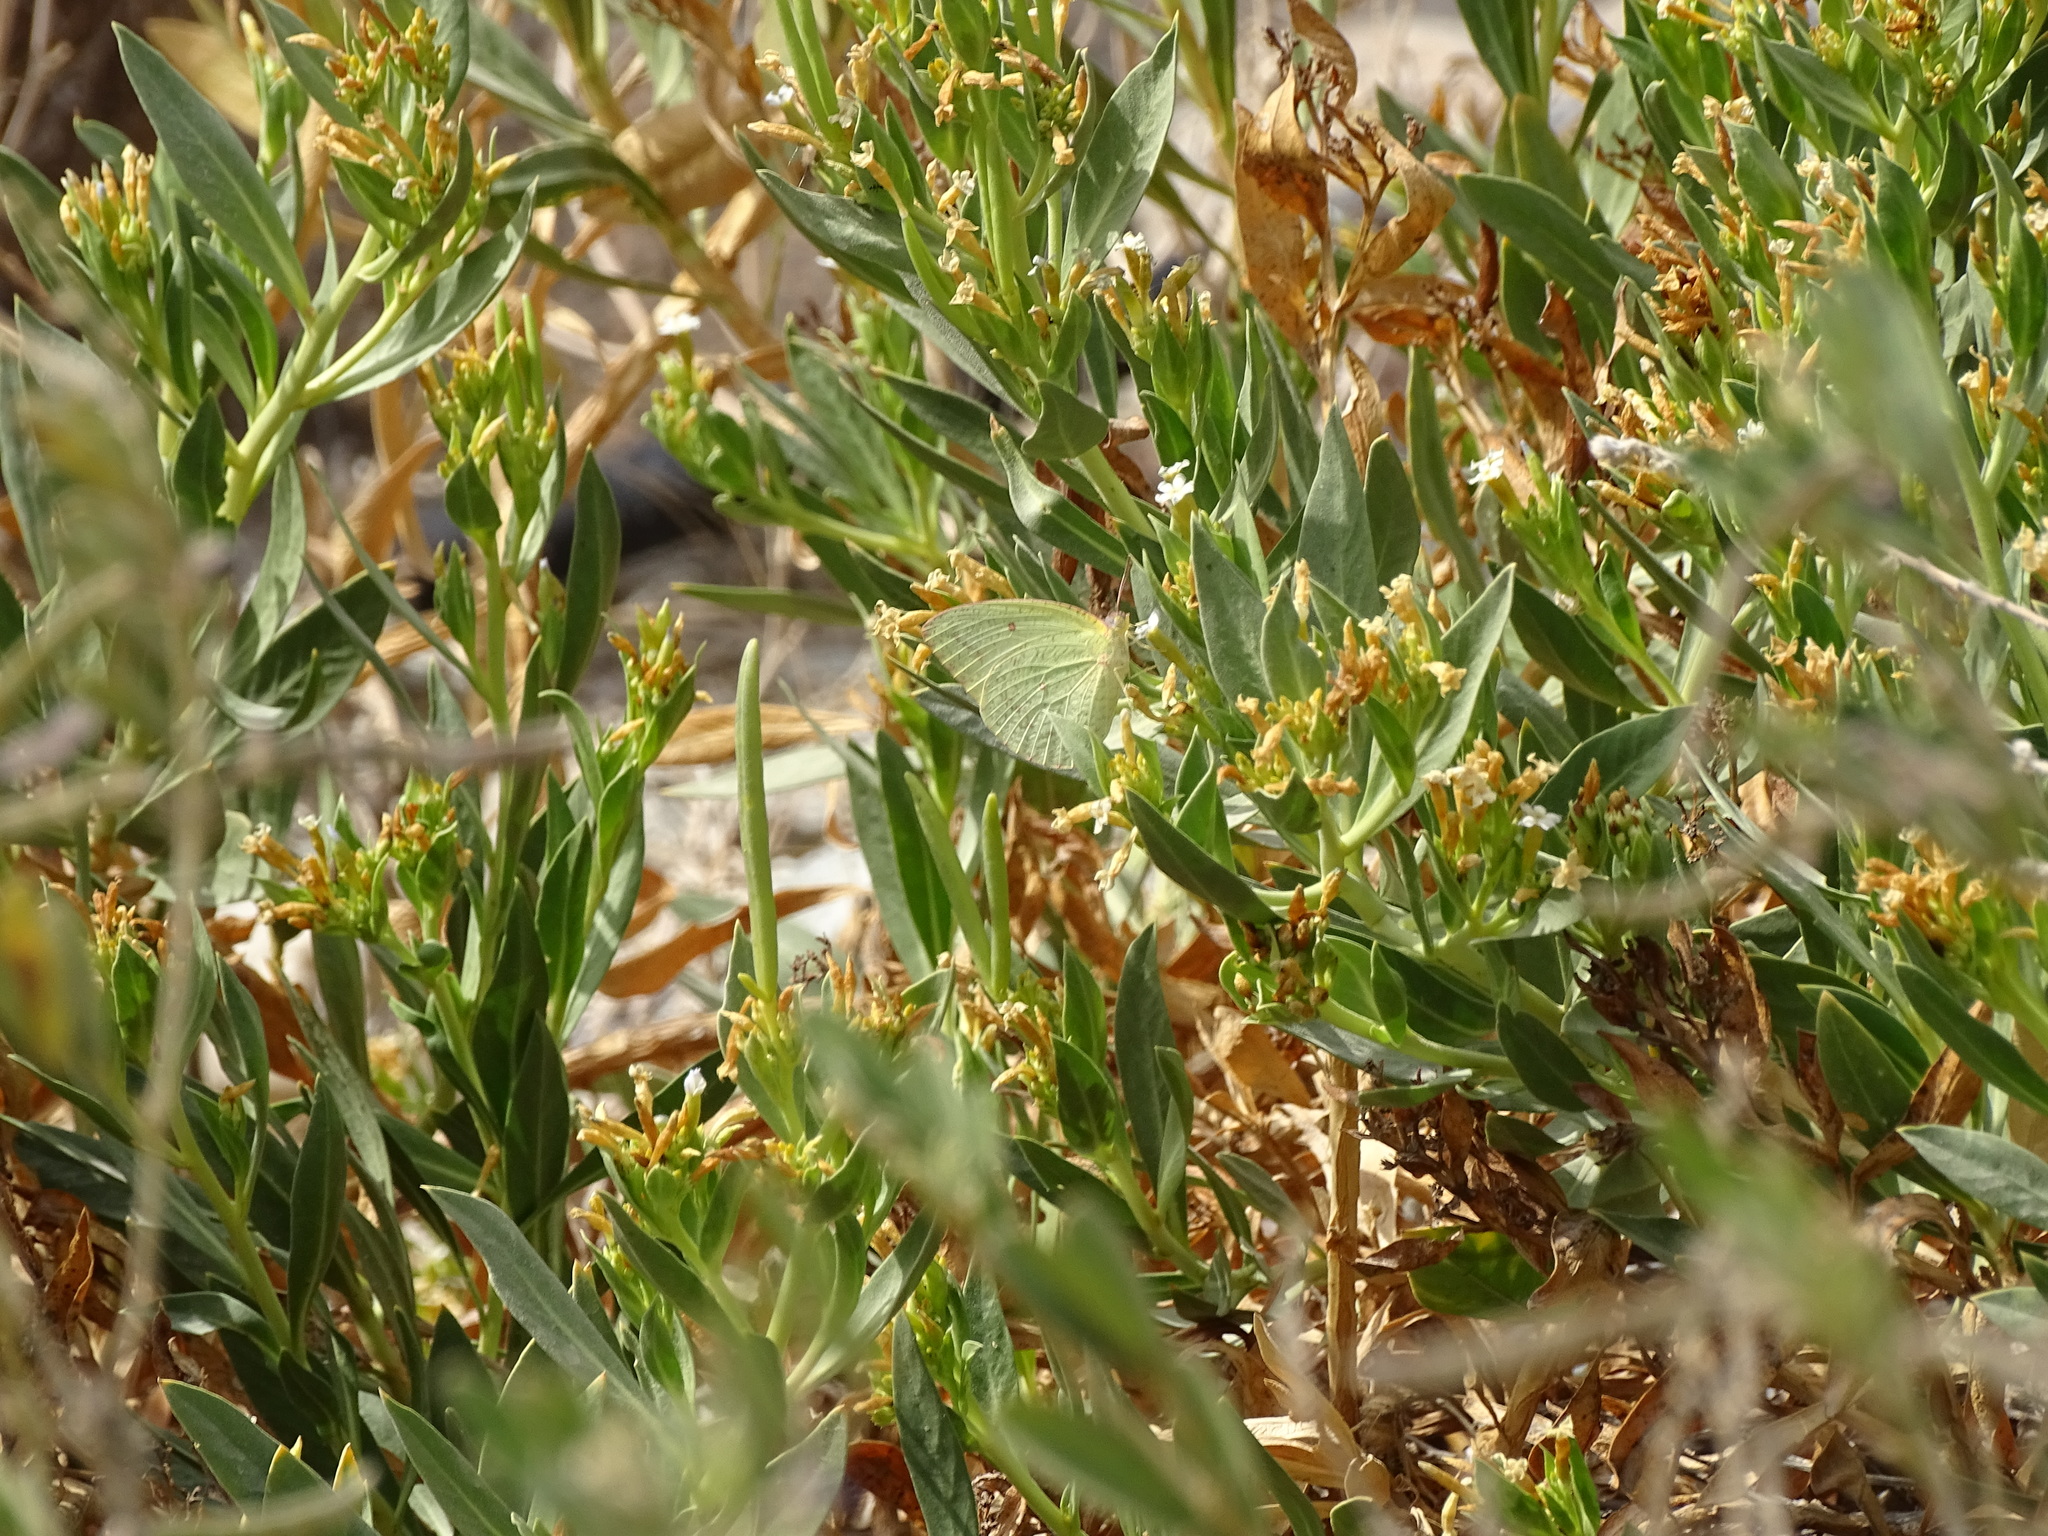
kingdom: Animalia
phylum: Arthropoda
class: Insecta
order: Lepidoptera
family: Pieridae
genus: Catopsilia
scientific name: Catopsilia florella
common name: African migrant
